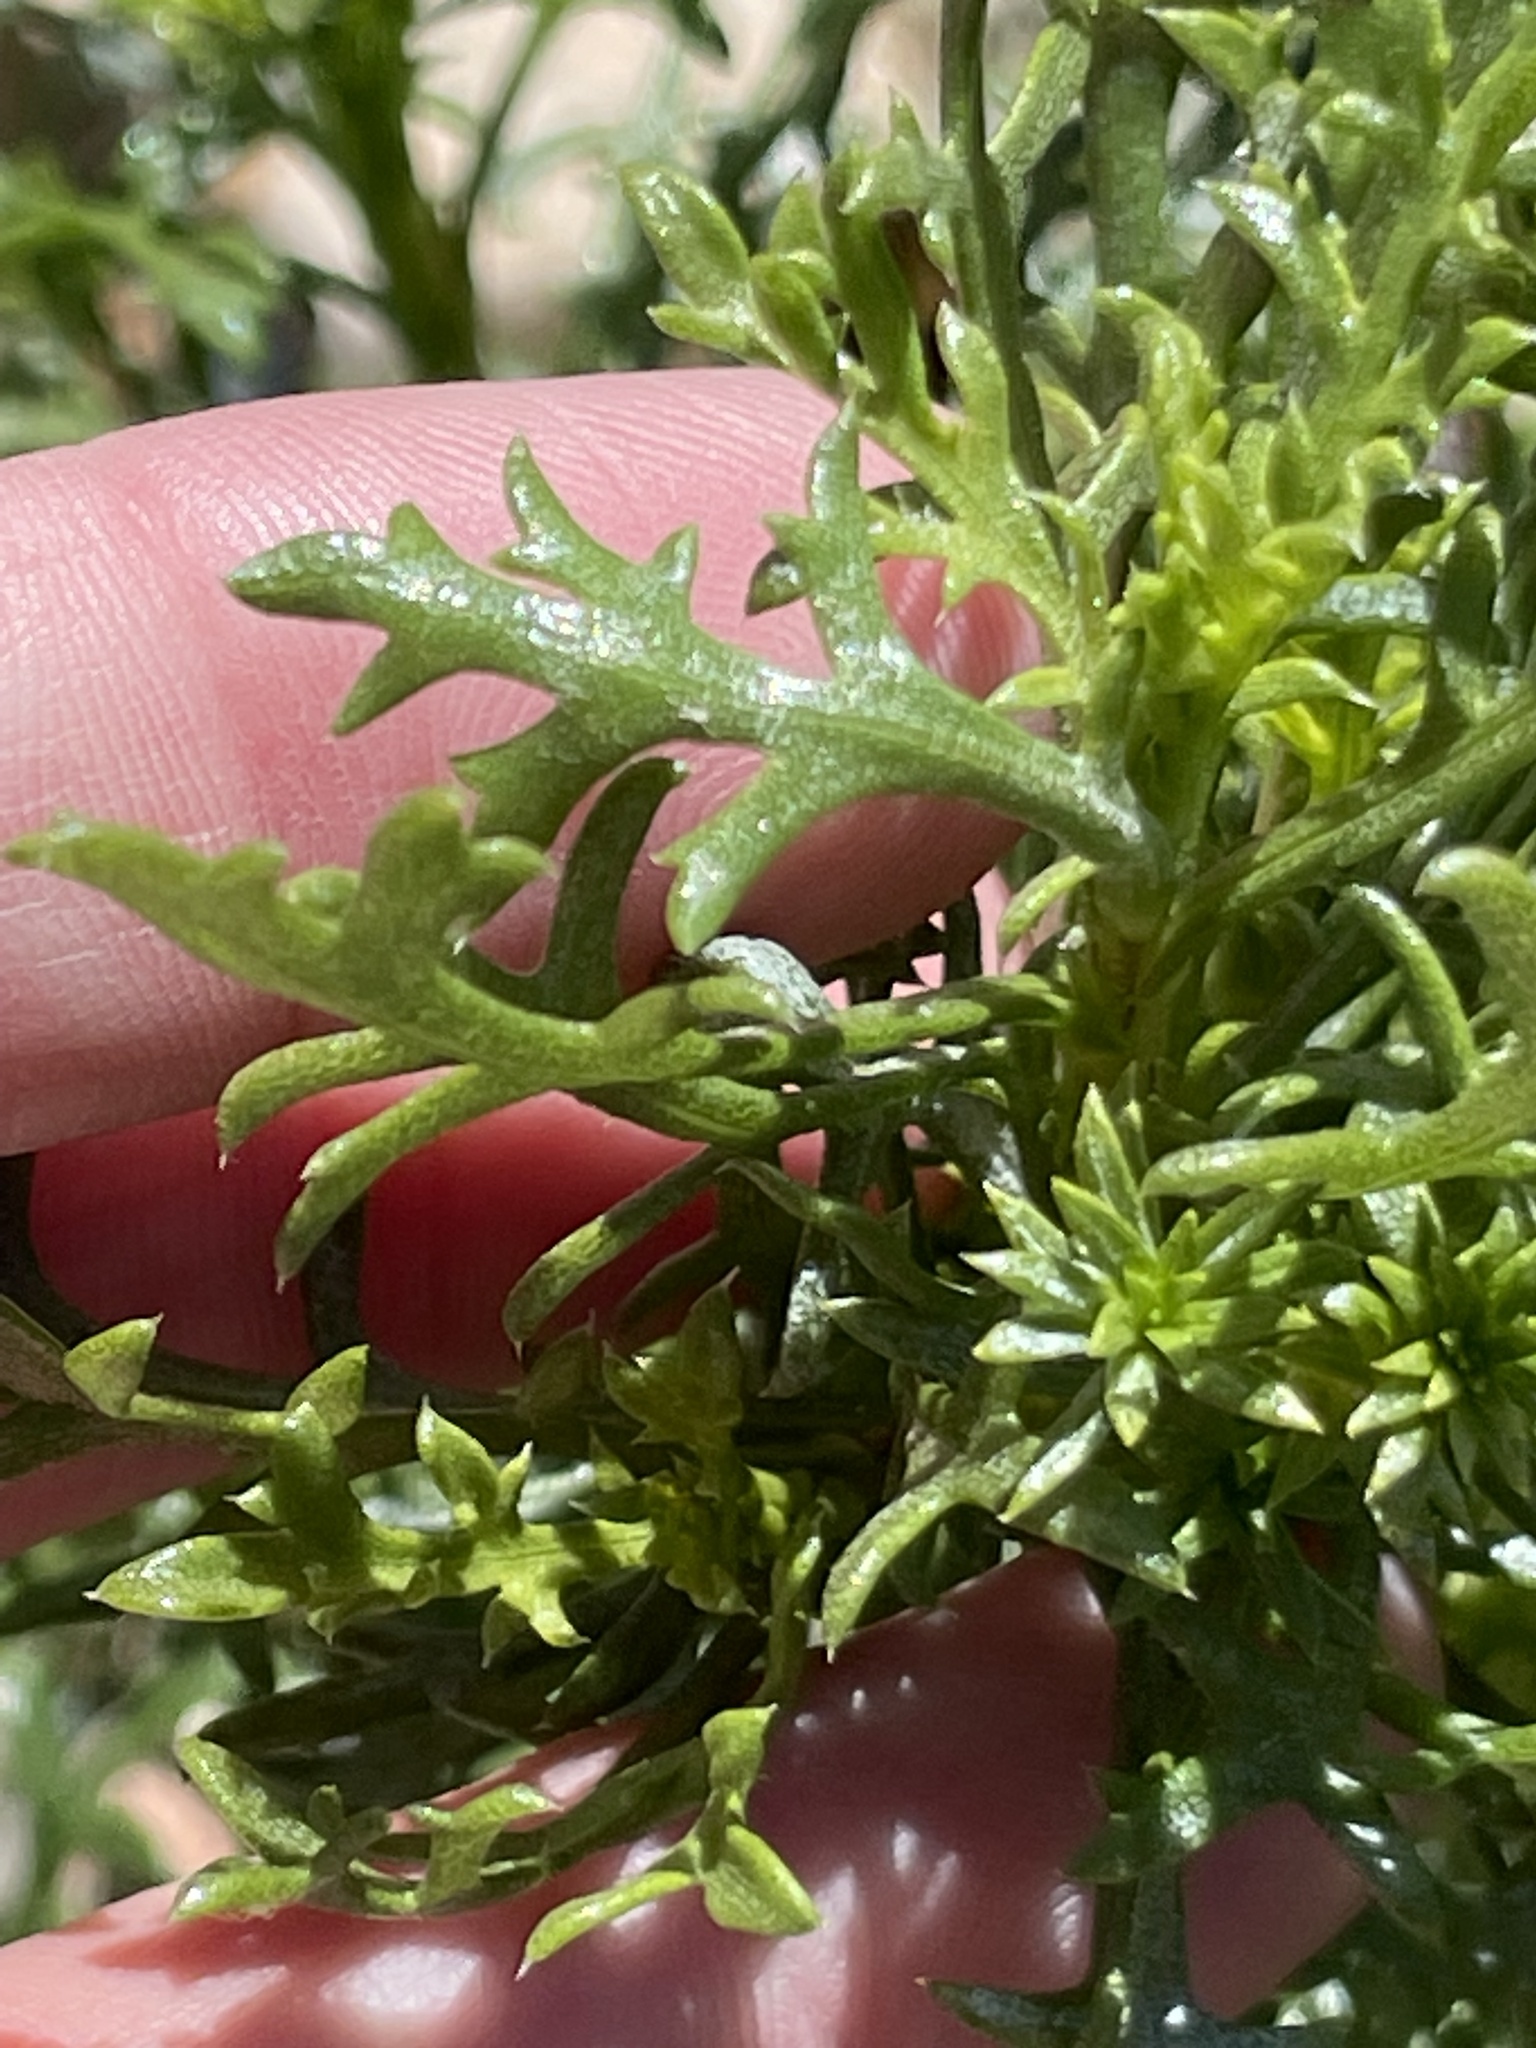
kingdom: Plantae
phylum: Tracheophyta
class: Magnoliopsida
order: Asterales
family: Asteraceae
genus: Isocoma
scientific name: Isocoma menziesii
